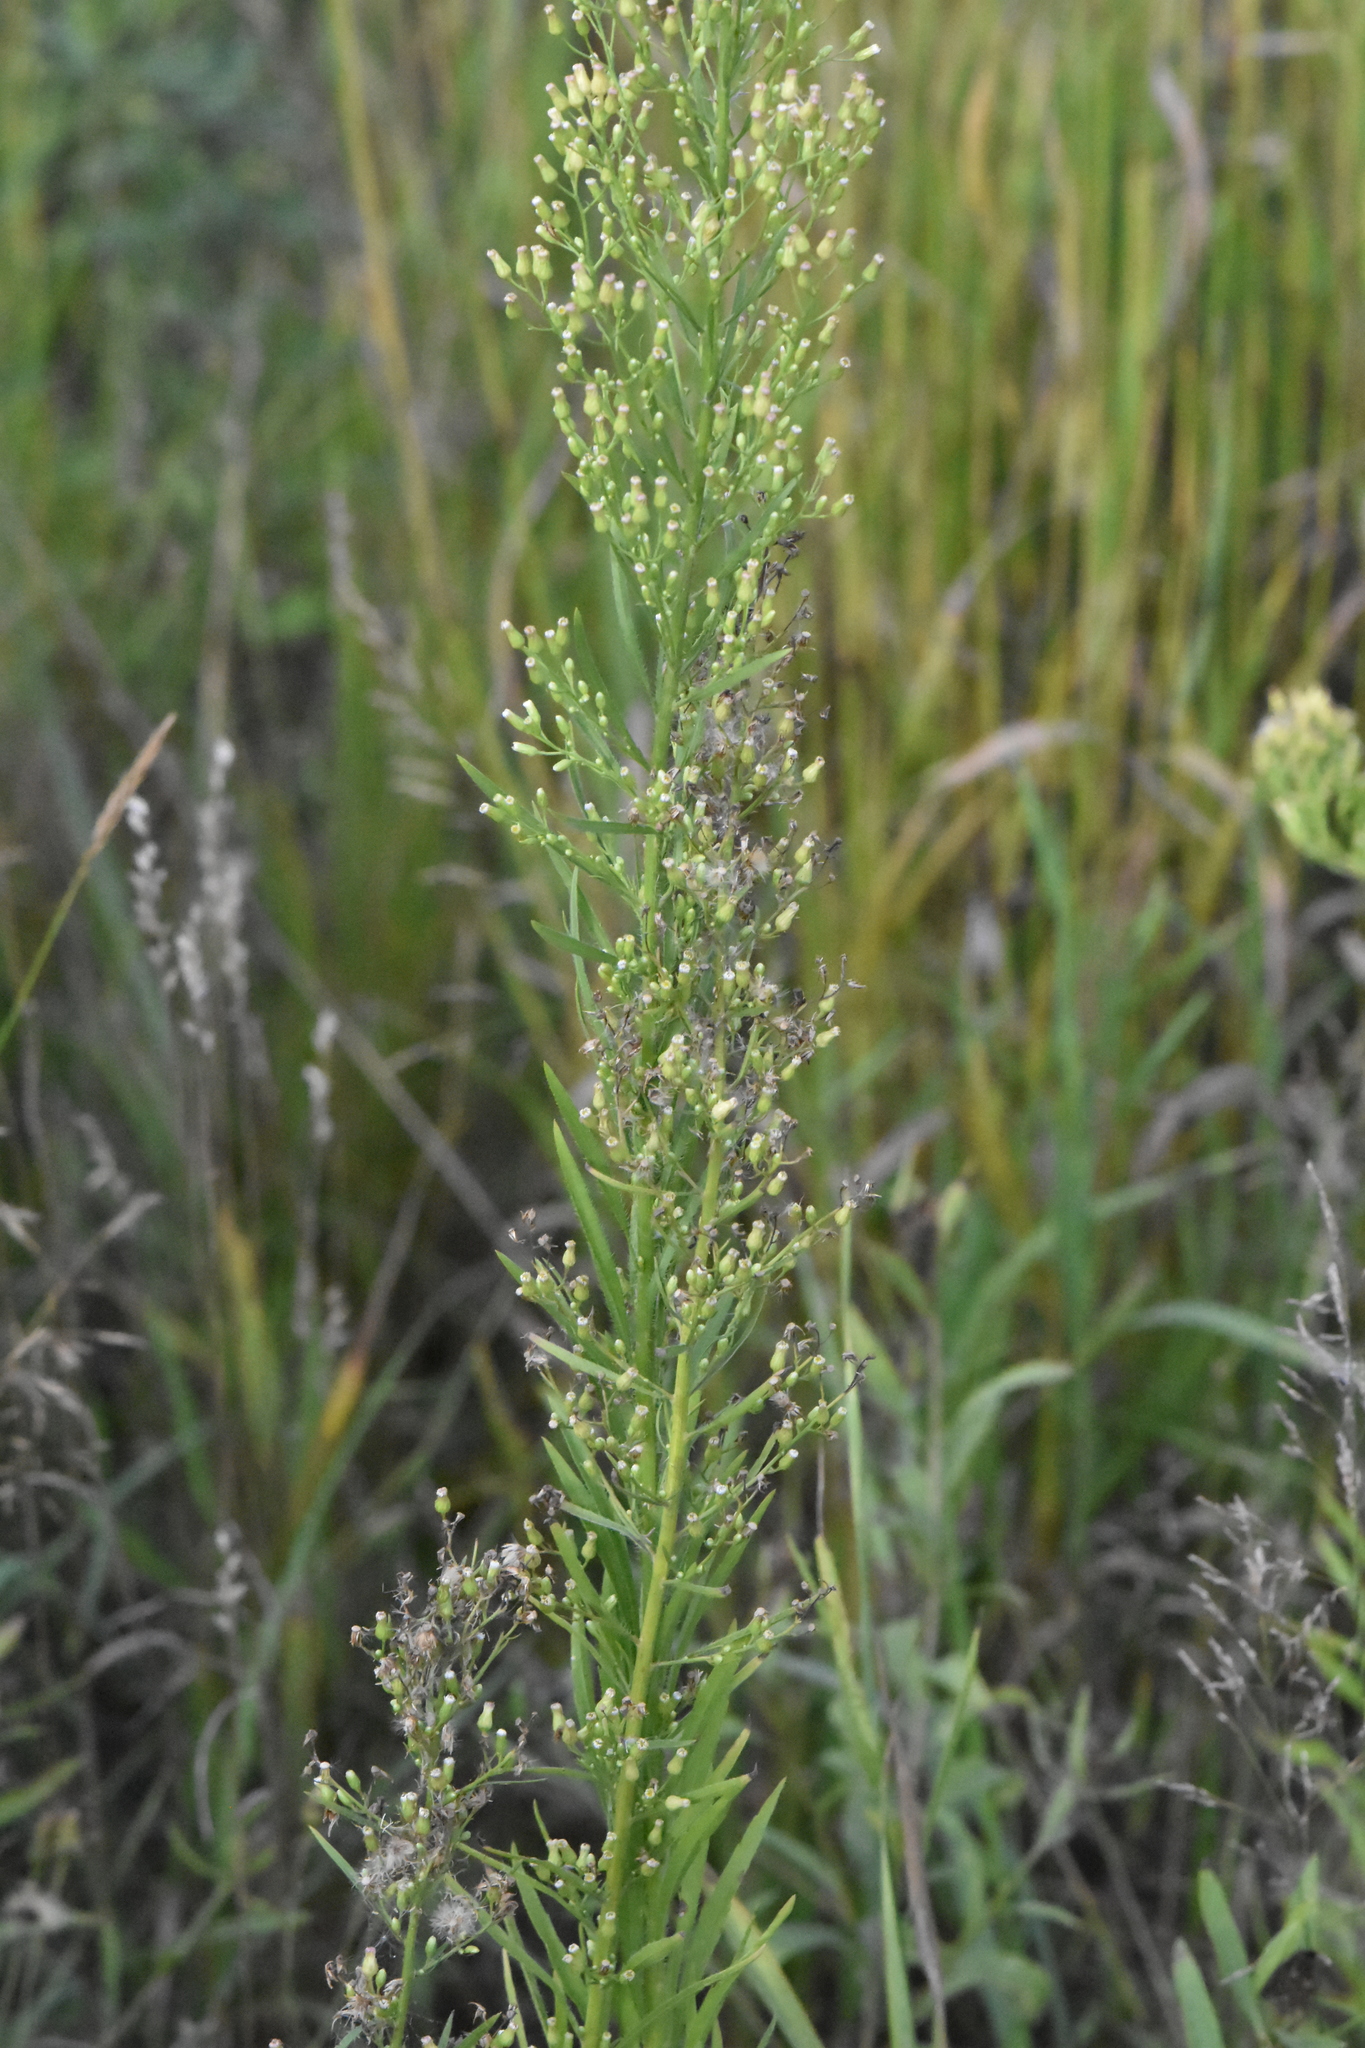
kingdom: Plantae
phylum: Tracheophyta
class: Magnoliopsida
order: Asterales
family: Asteraceae
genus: Erigeron
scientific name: Erigeron canadensis
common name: Canadian fleabane
